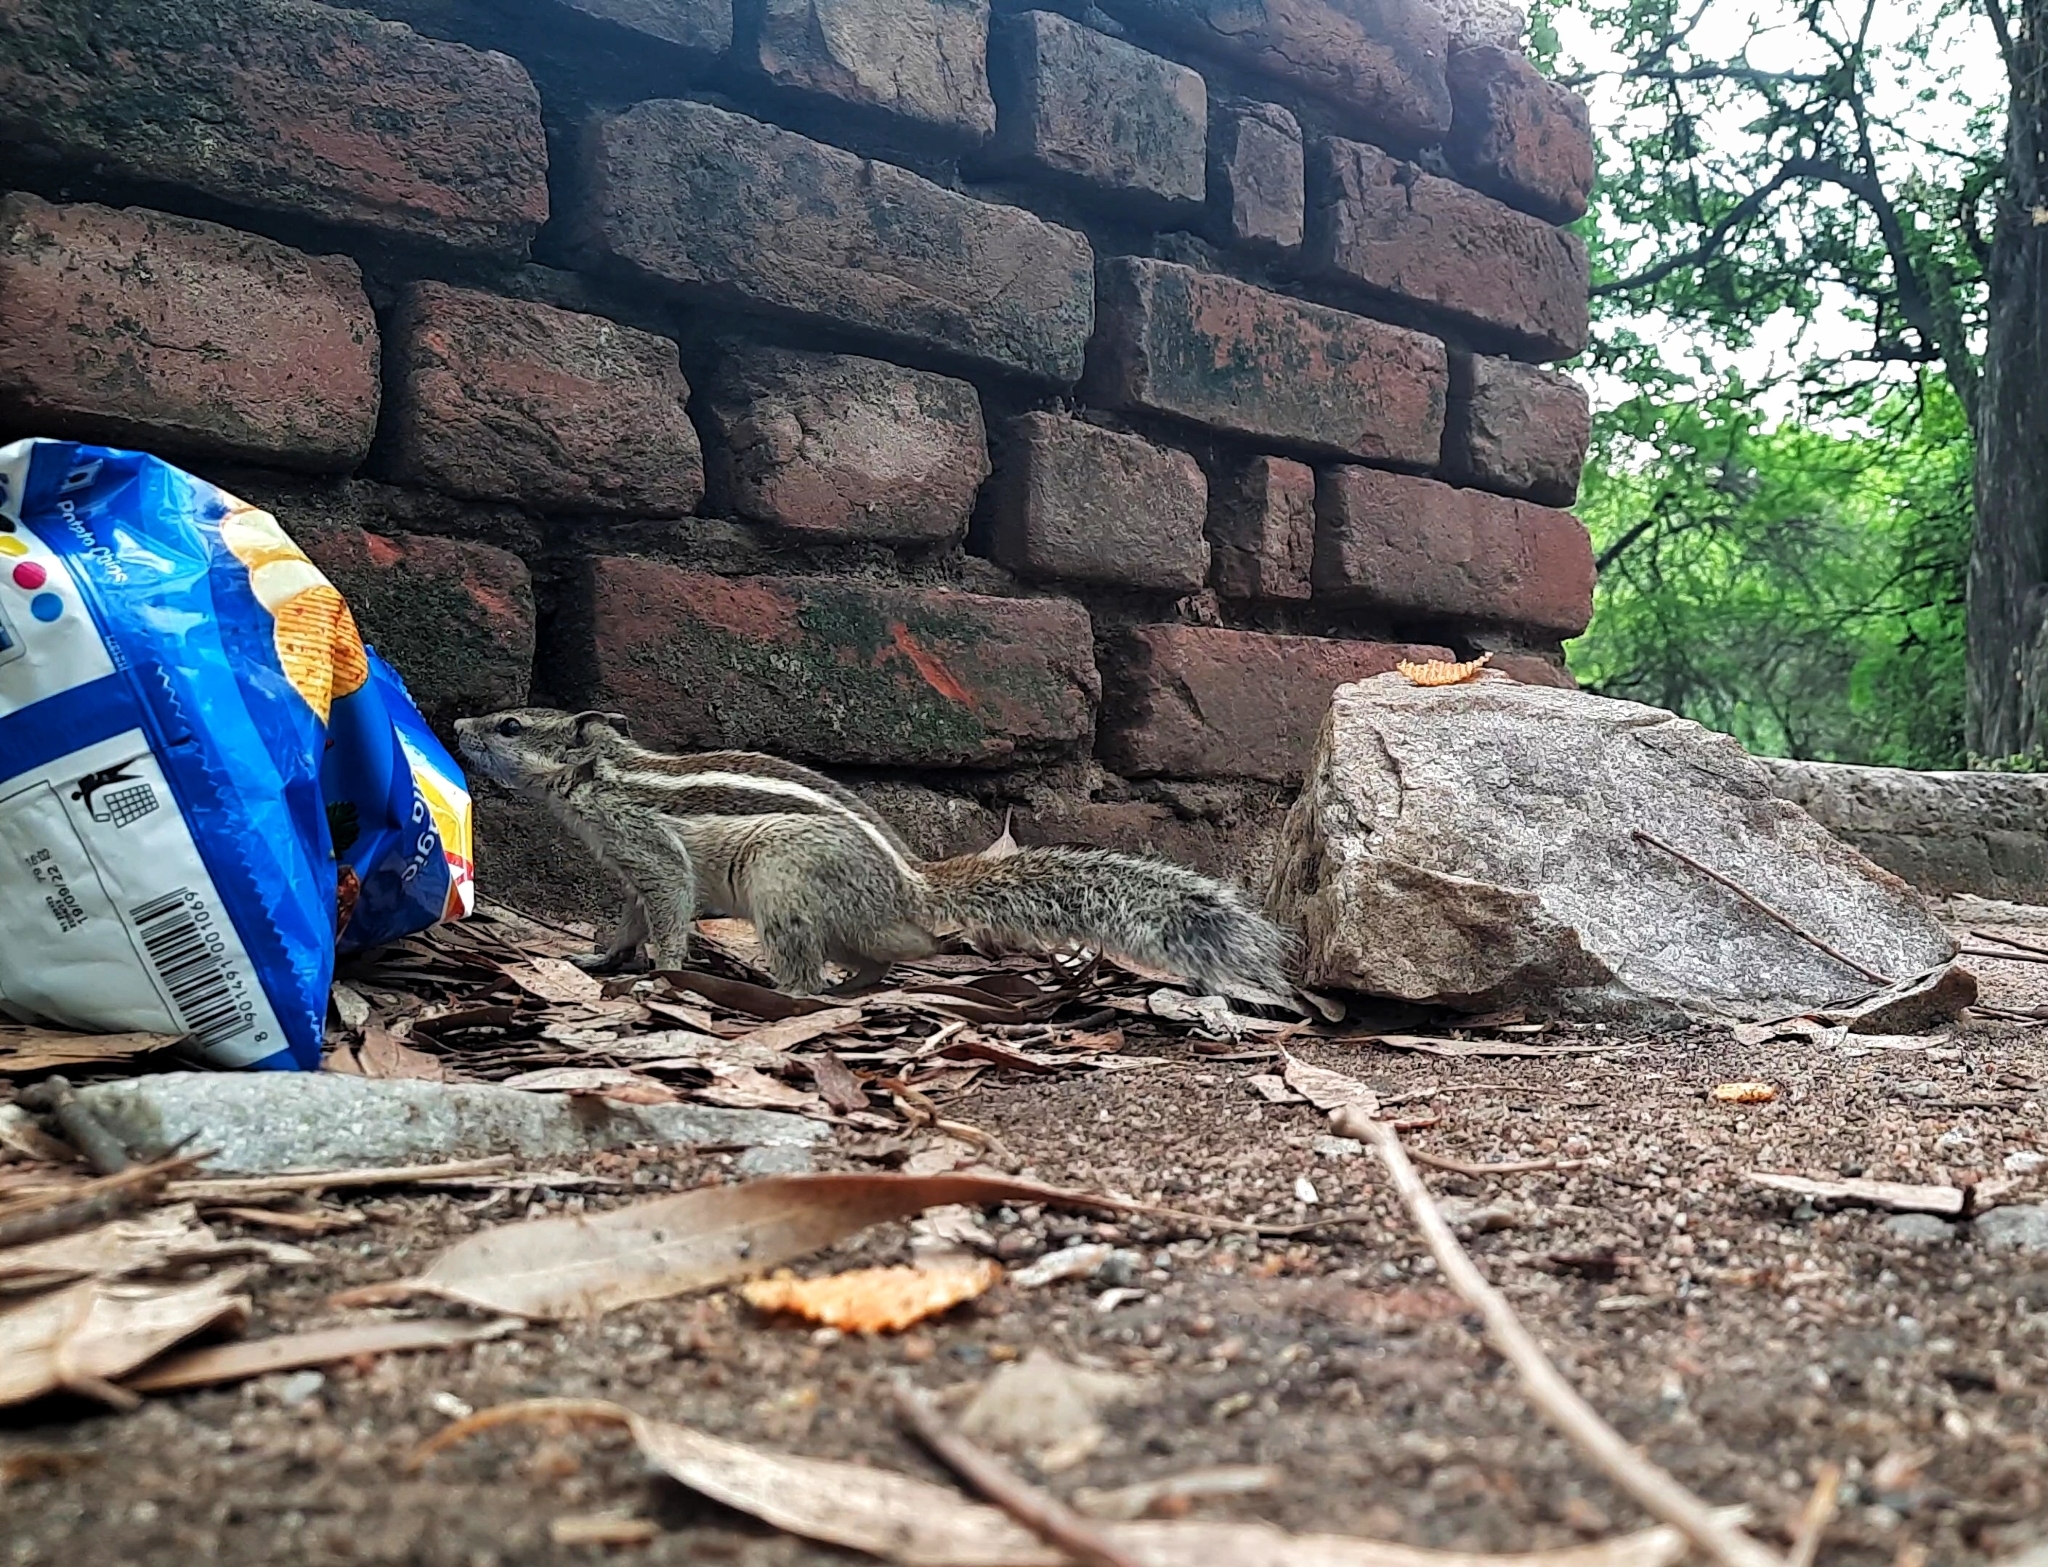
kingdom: Animalia
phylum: Chordata
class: Mammalia
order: Rodentia
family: Sciuridae
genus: Funambulus
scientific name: Funambulus pennantii
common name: Northern palm squirrel
